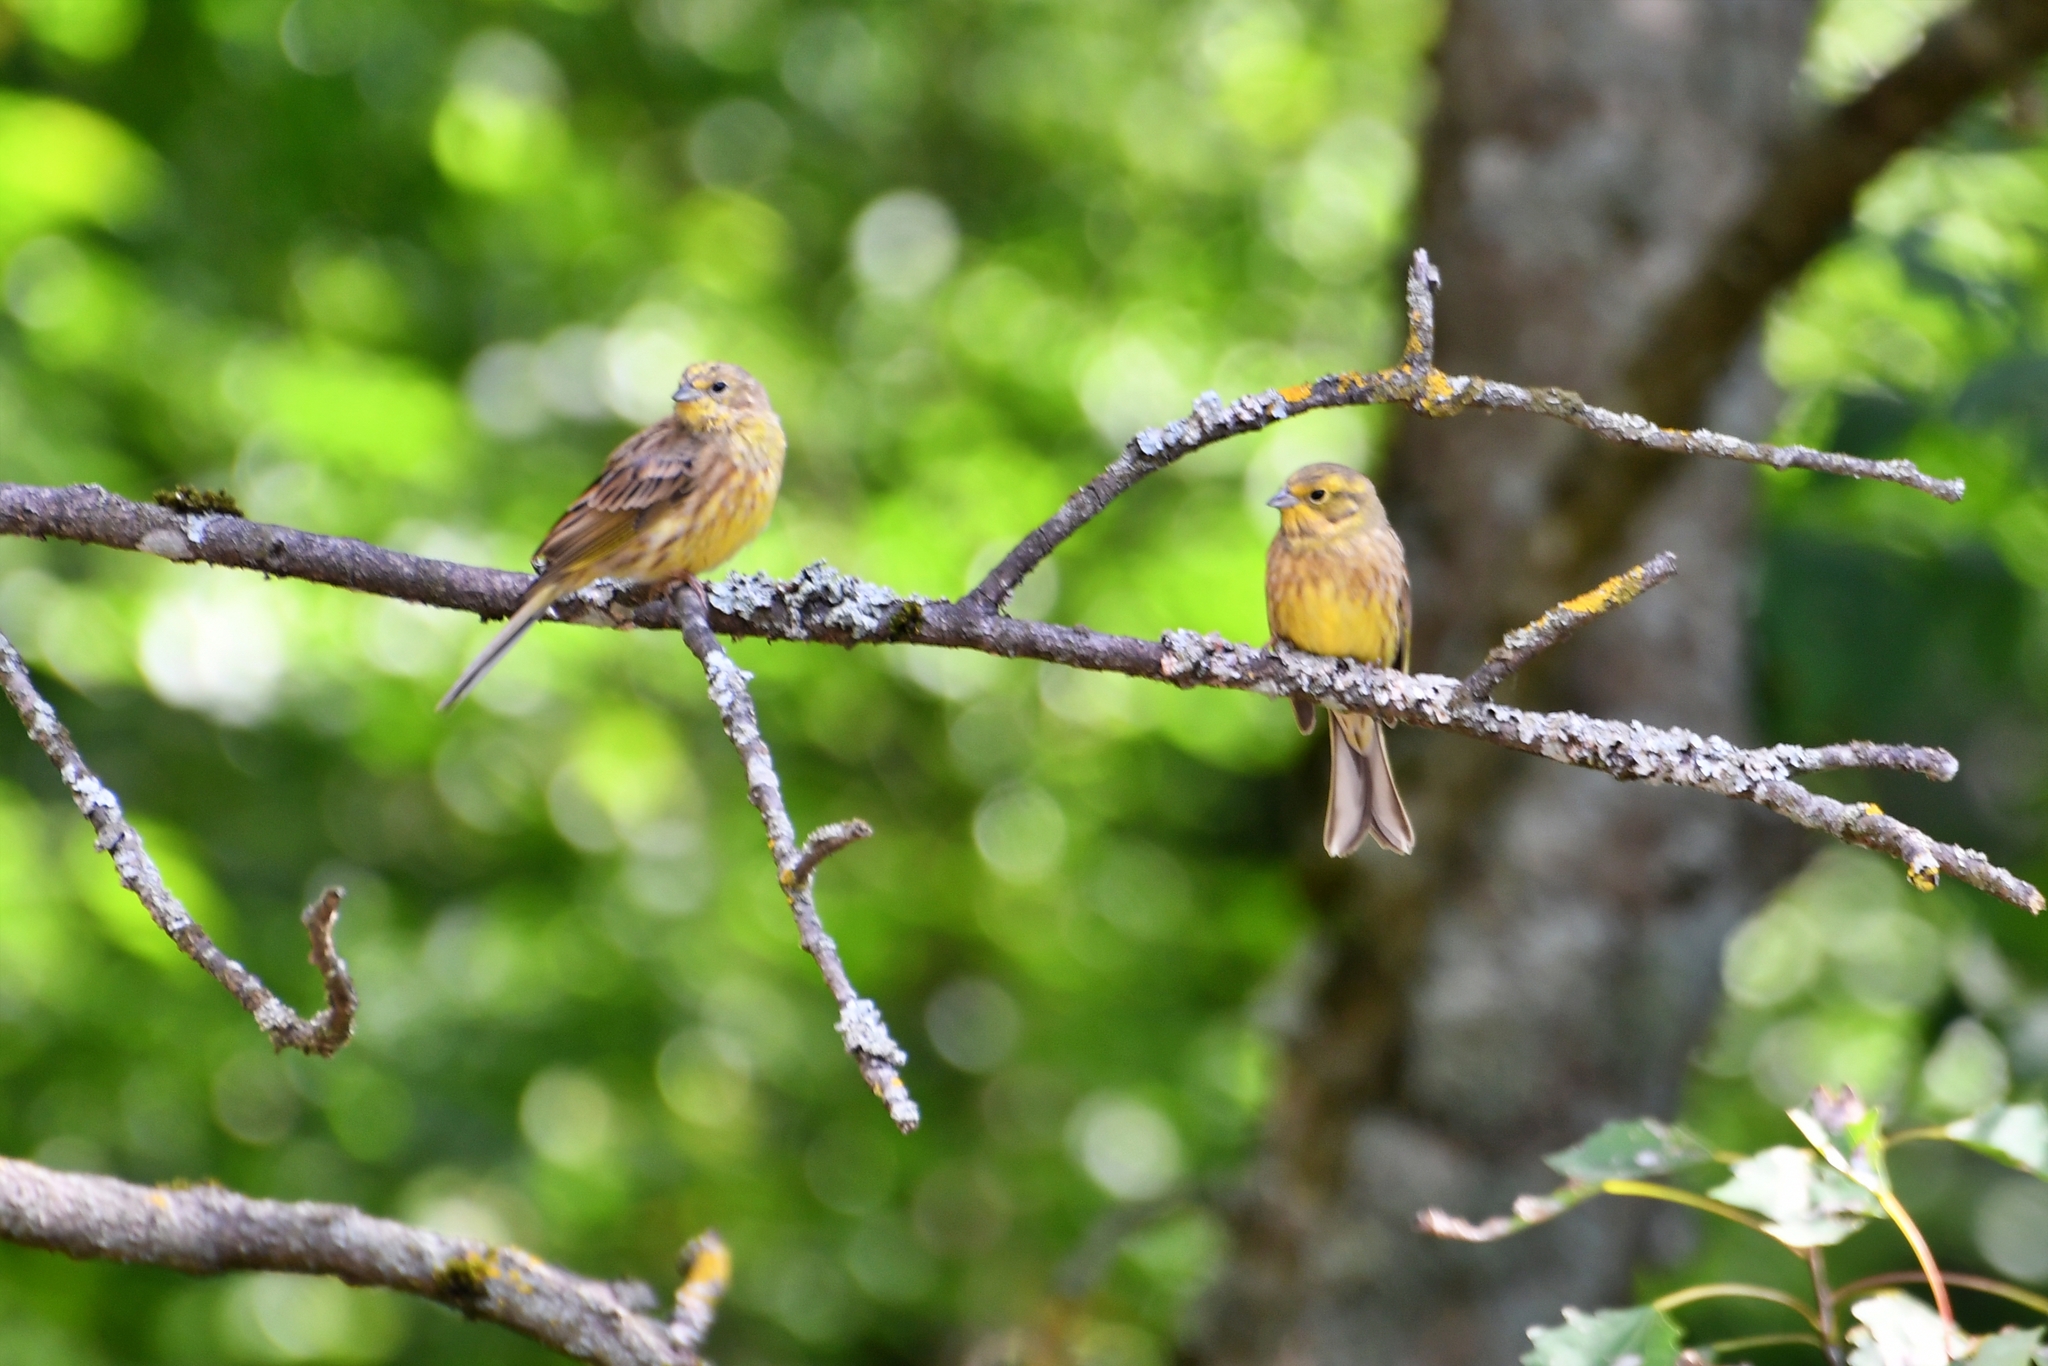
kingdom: Animalia
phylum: Chordata
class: Aves
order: Passeriformes
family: Emberizidae
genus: Emberiza
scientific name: Emberiza citrinella
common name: Yellowhammer
